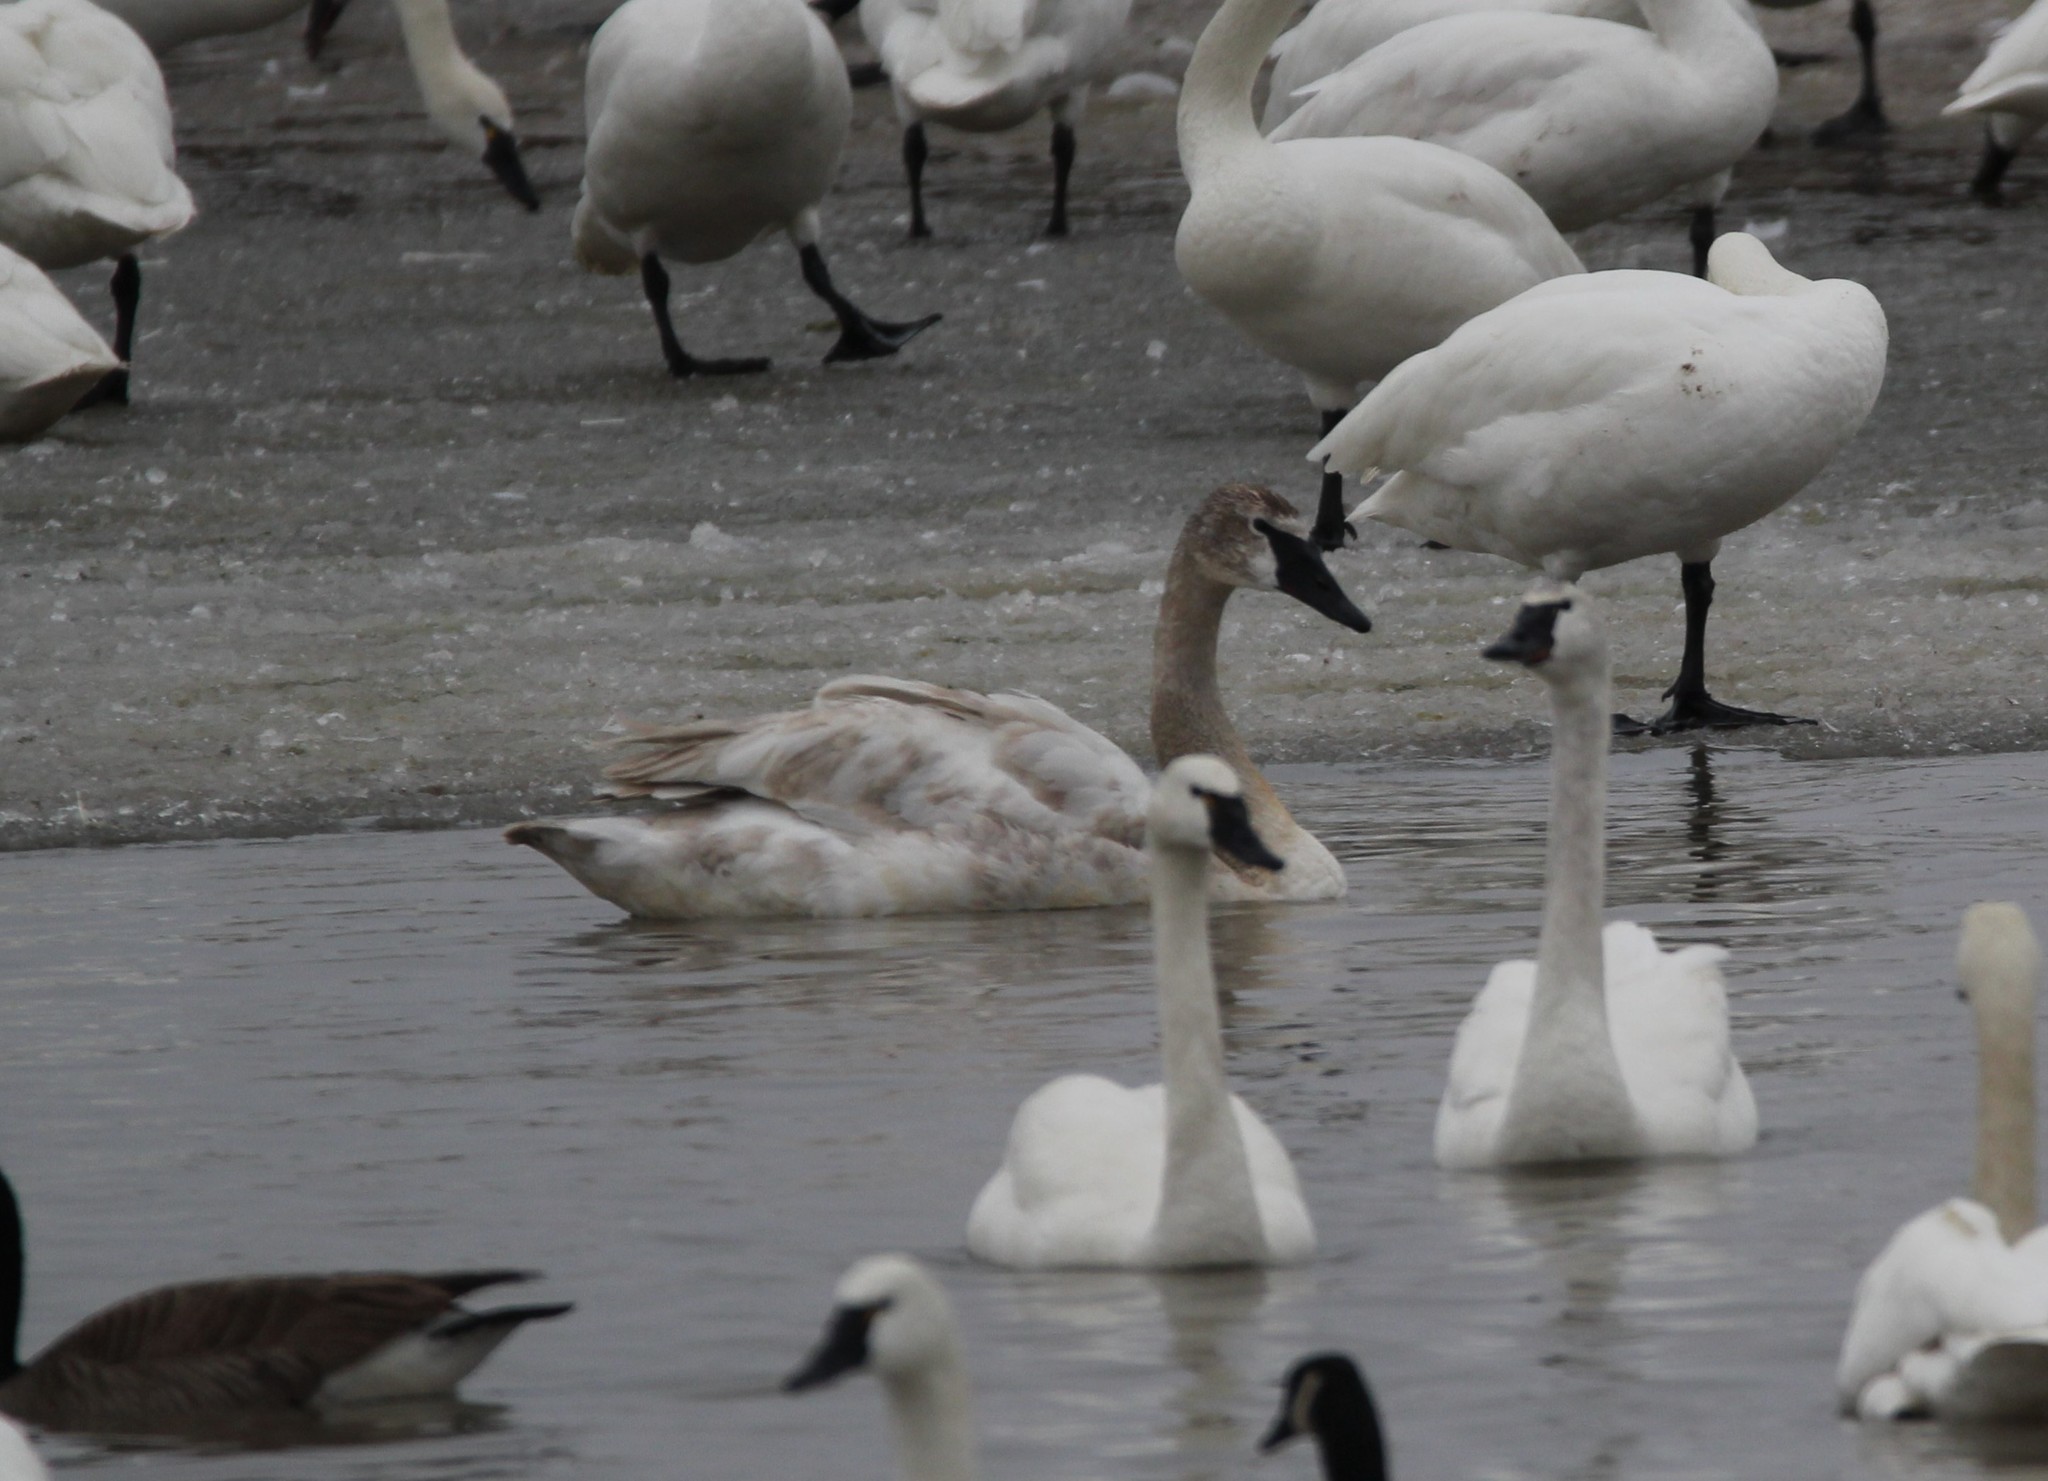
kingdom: Animalia
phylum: Chordata
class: Aves
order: Anseriformes
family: Anatidae
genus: Cygnus
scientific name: Cygnus buccinator
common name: Trumpeter swan
